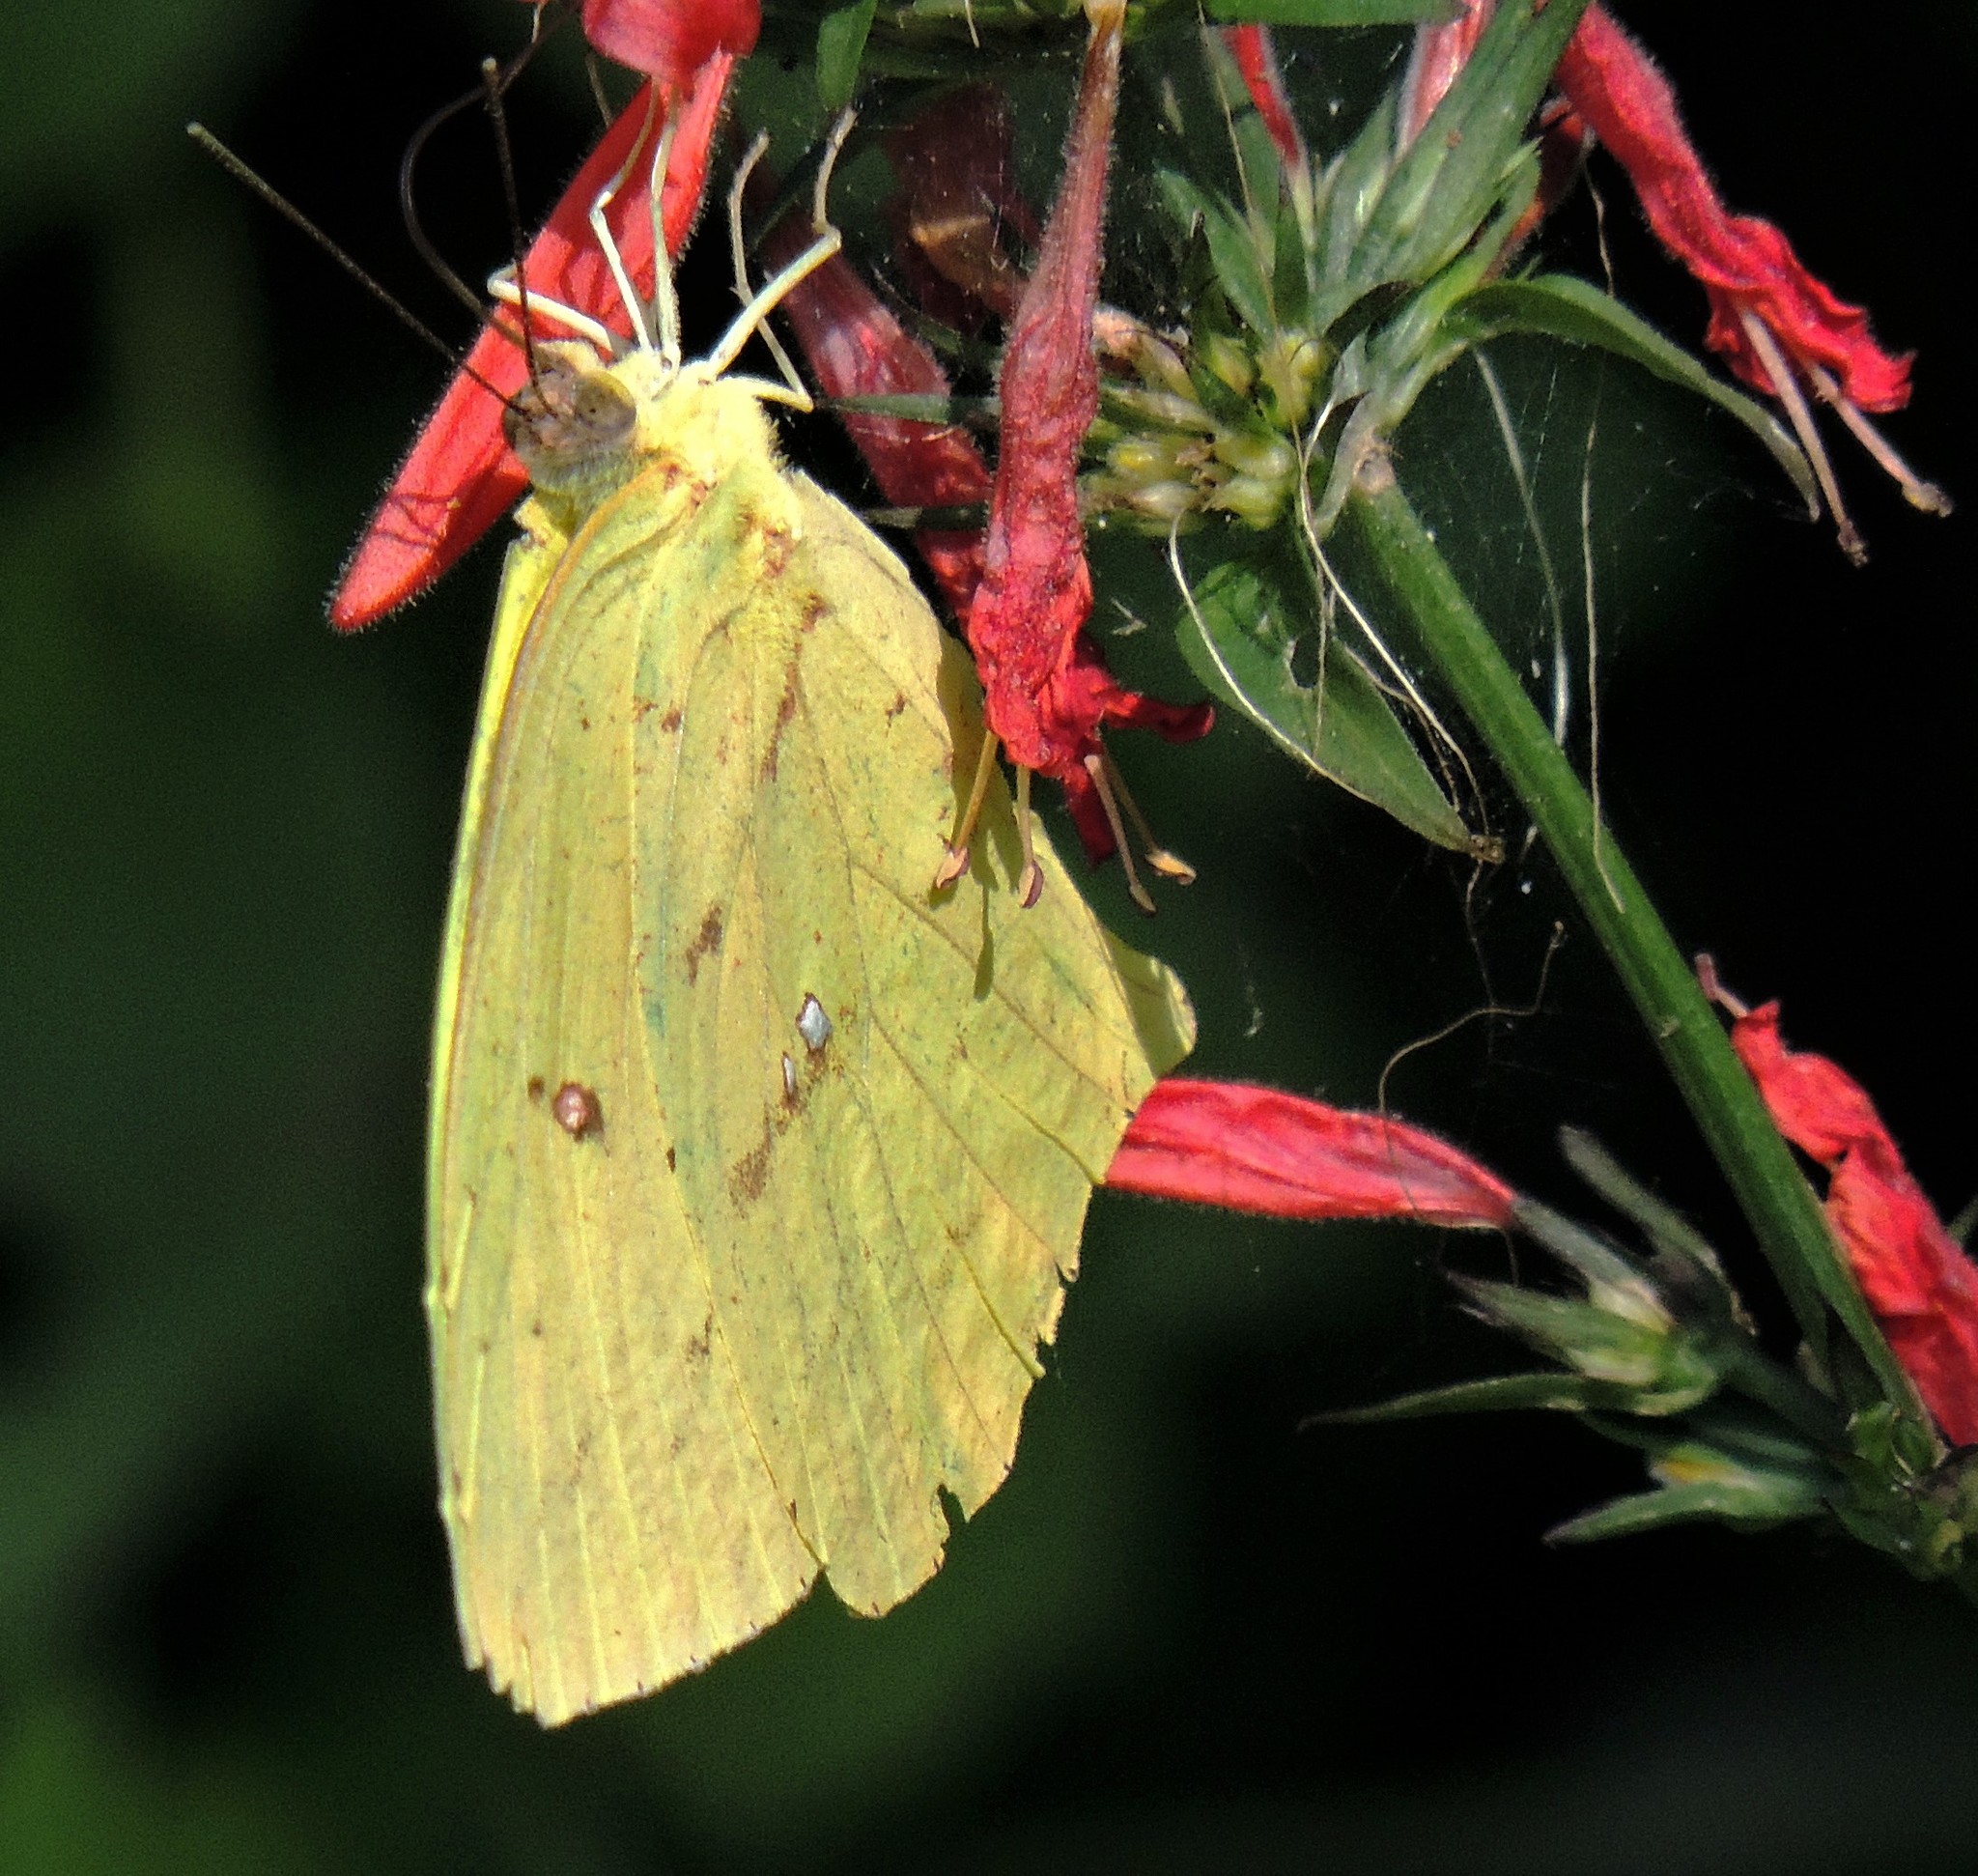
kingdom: Animalia
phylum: Arthropoda
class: Insecta
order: Lepidoptera
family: Pieridae
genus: Phoebis
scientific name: Phoebis neocypris
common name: Tailed sulphur
